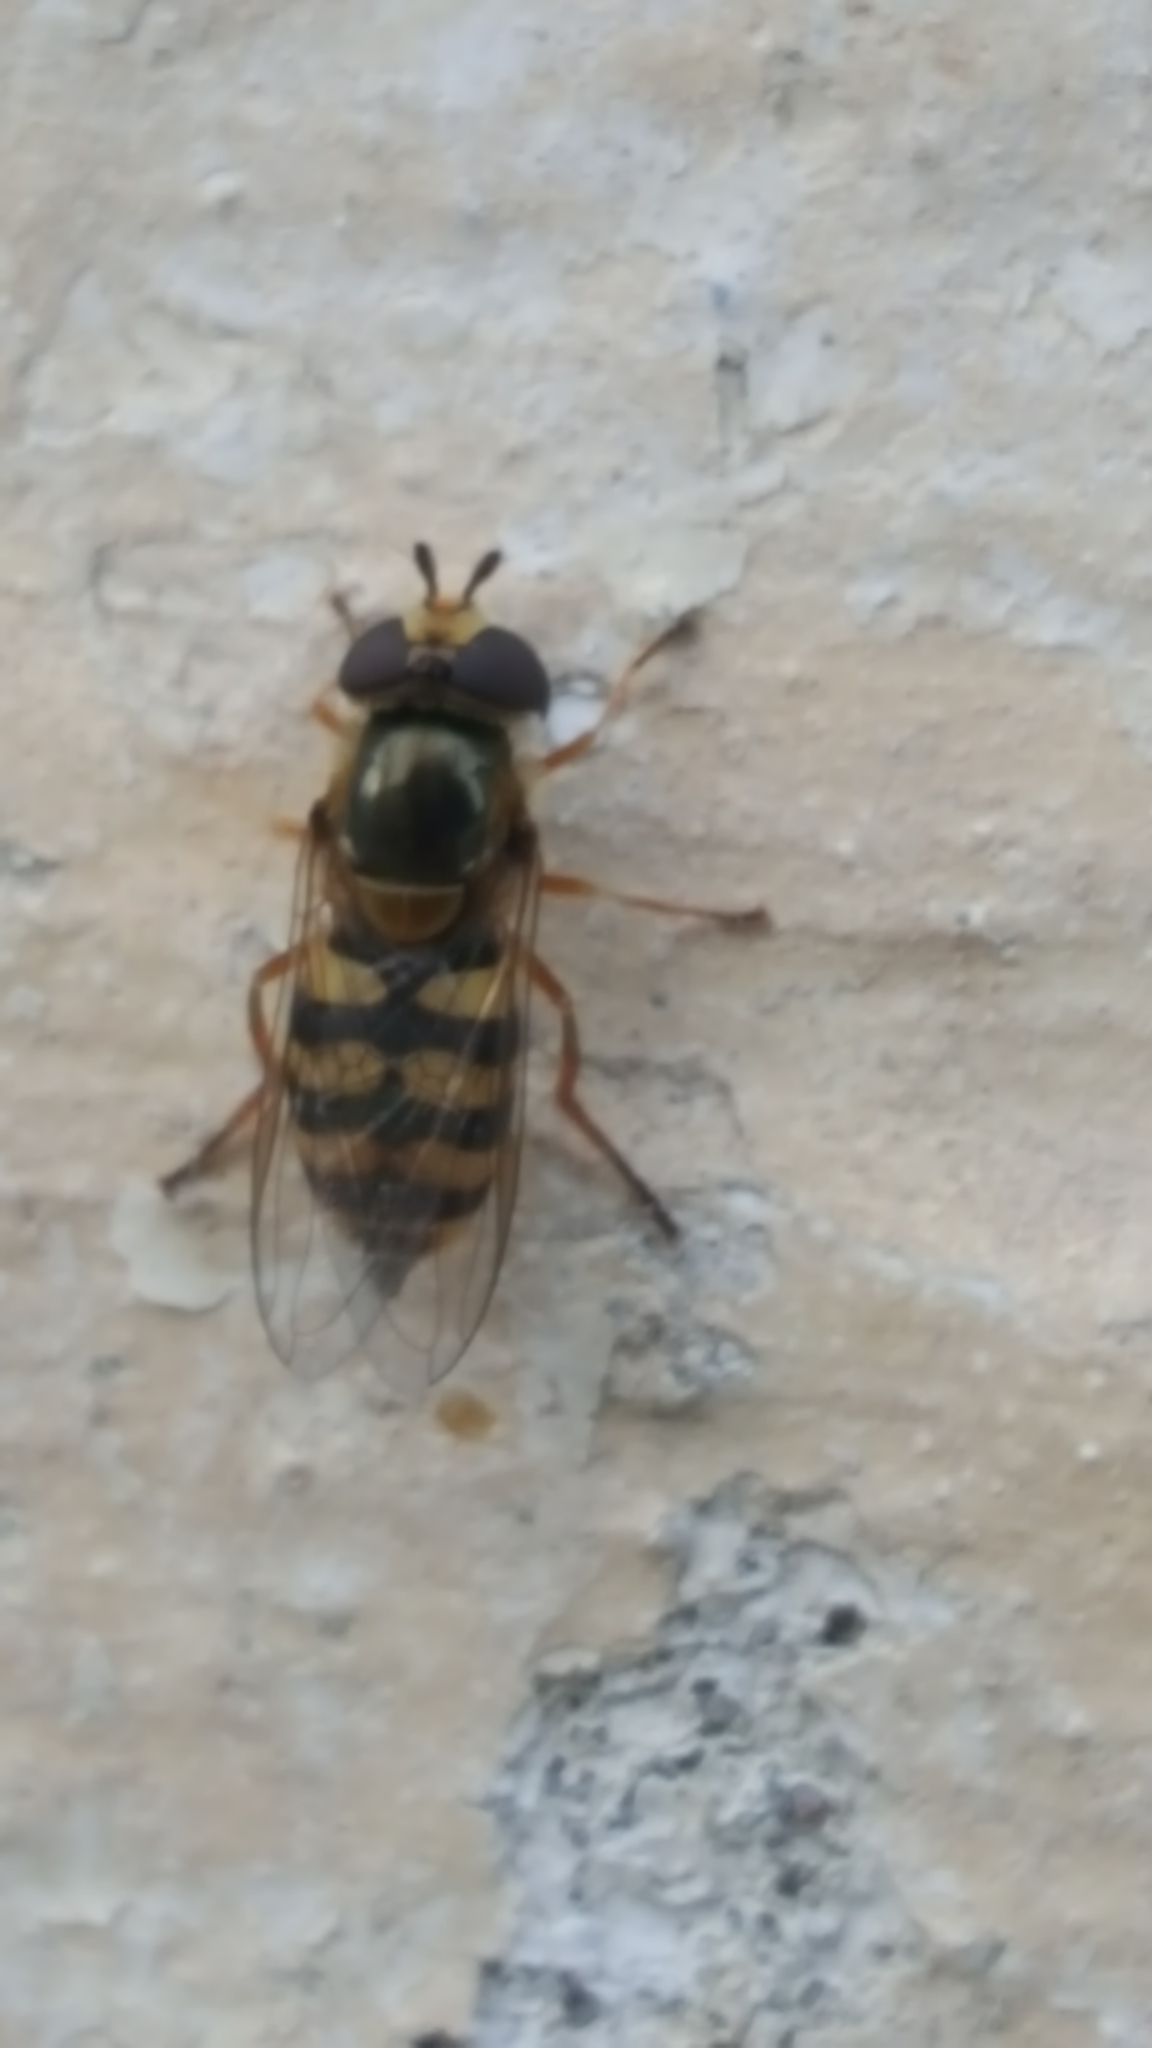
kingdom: Animalia
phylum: Arthropoda
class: Insecta
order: Diptera
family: Syrphidae
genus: Eupeodes
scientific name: Eupeodes corollae
